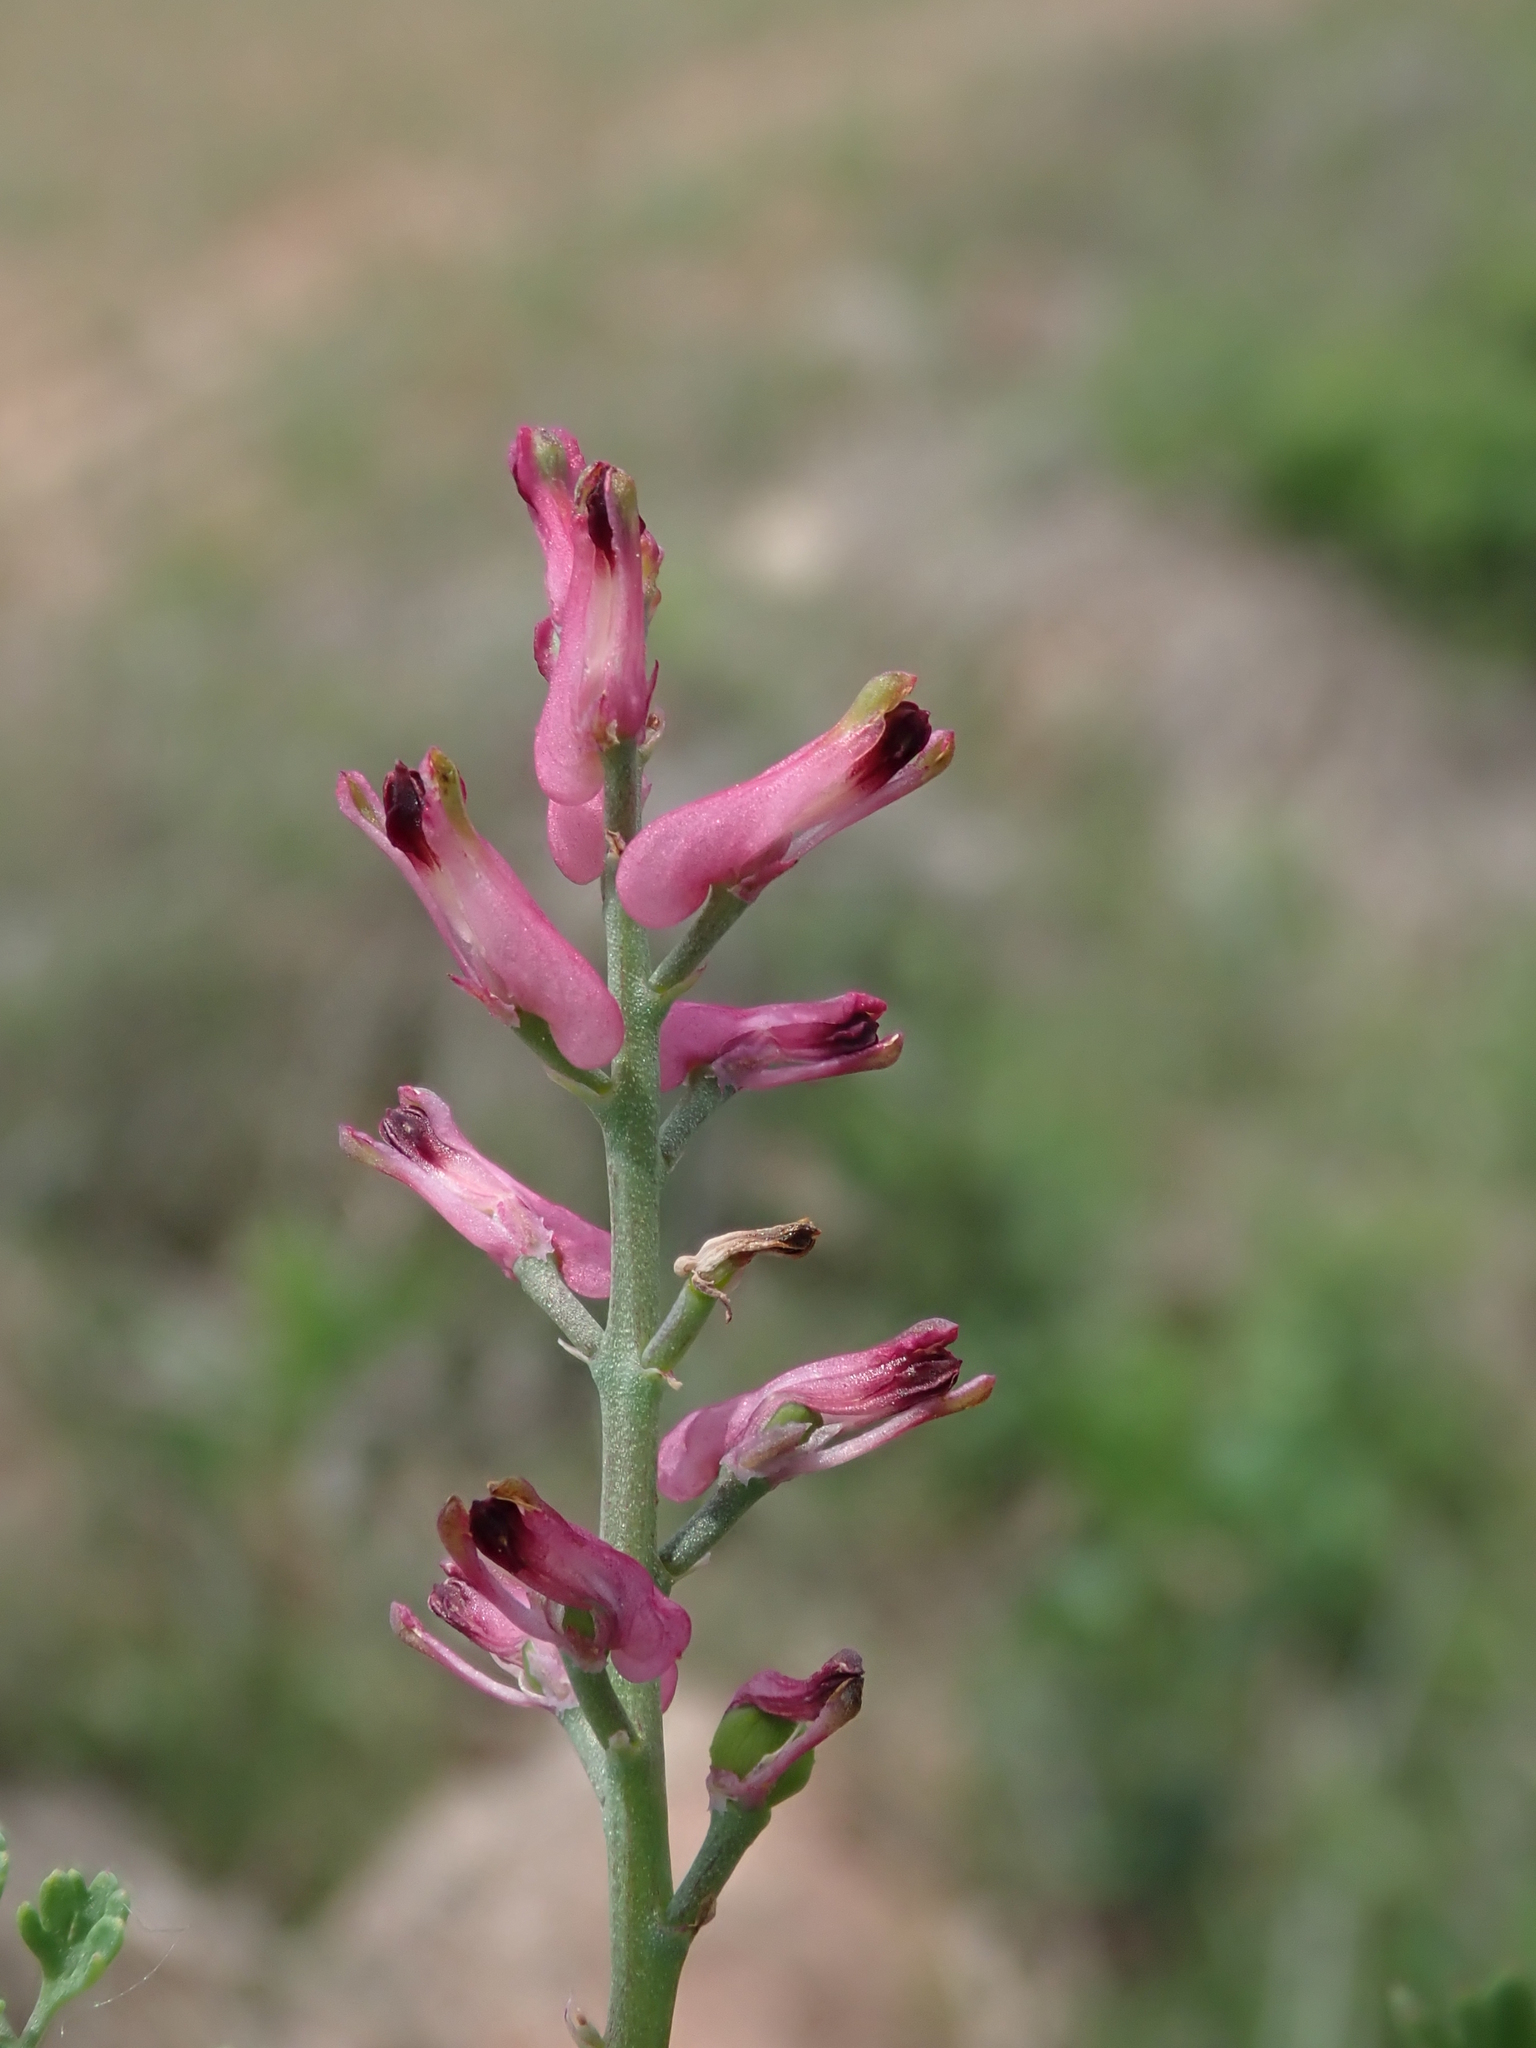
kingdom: Plantae
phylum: Tracheophyta
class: Magnoliopsida
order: Ranunculales
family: Papaveraceae
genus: Fumaria
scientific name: Fumaria officinalis
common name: Common fumitory
